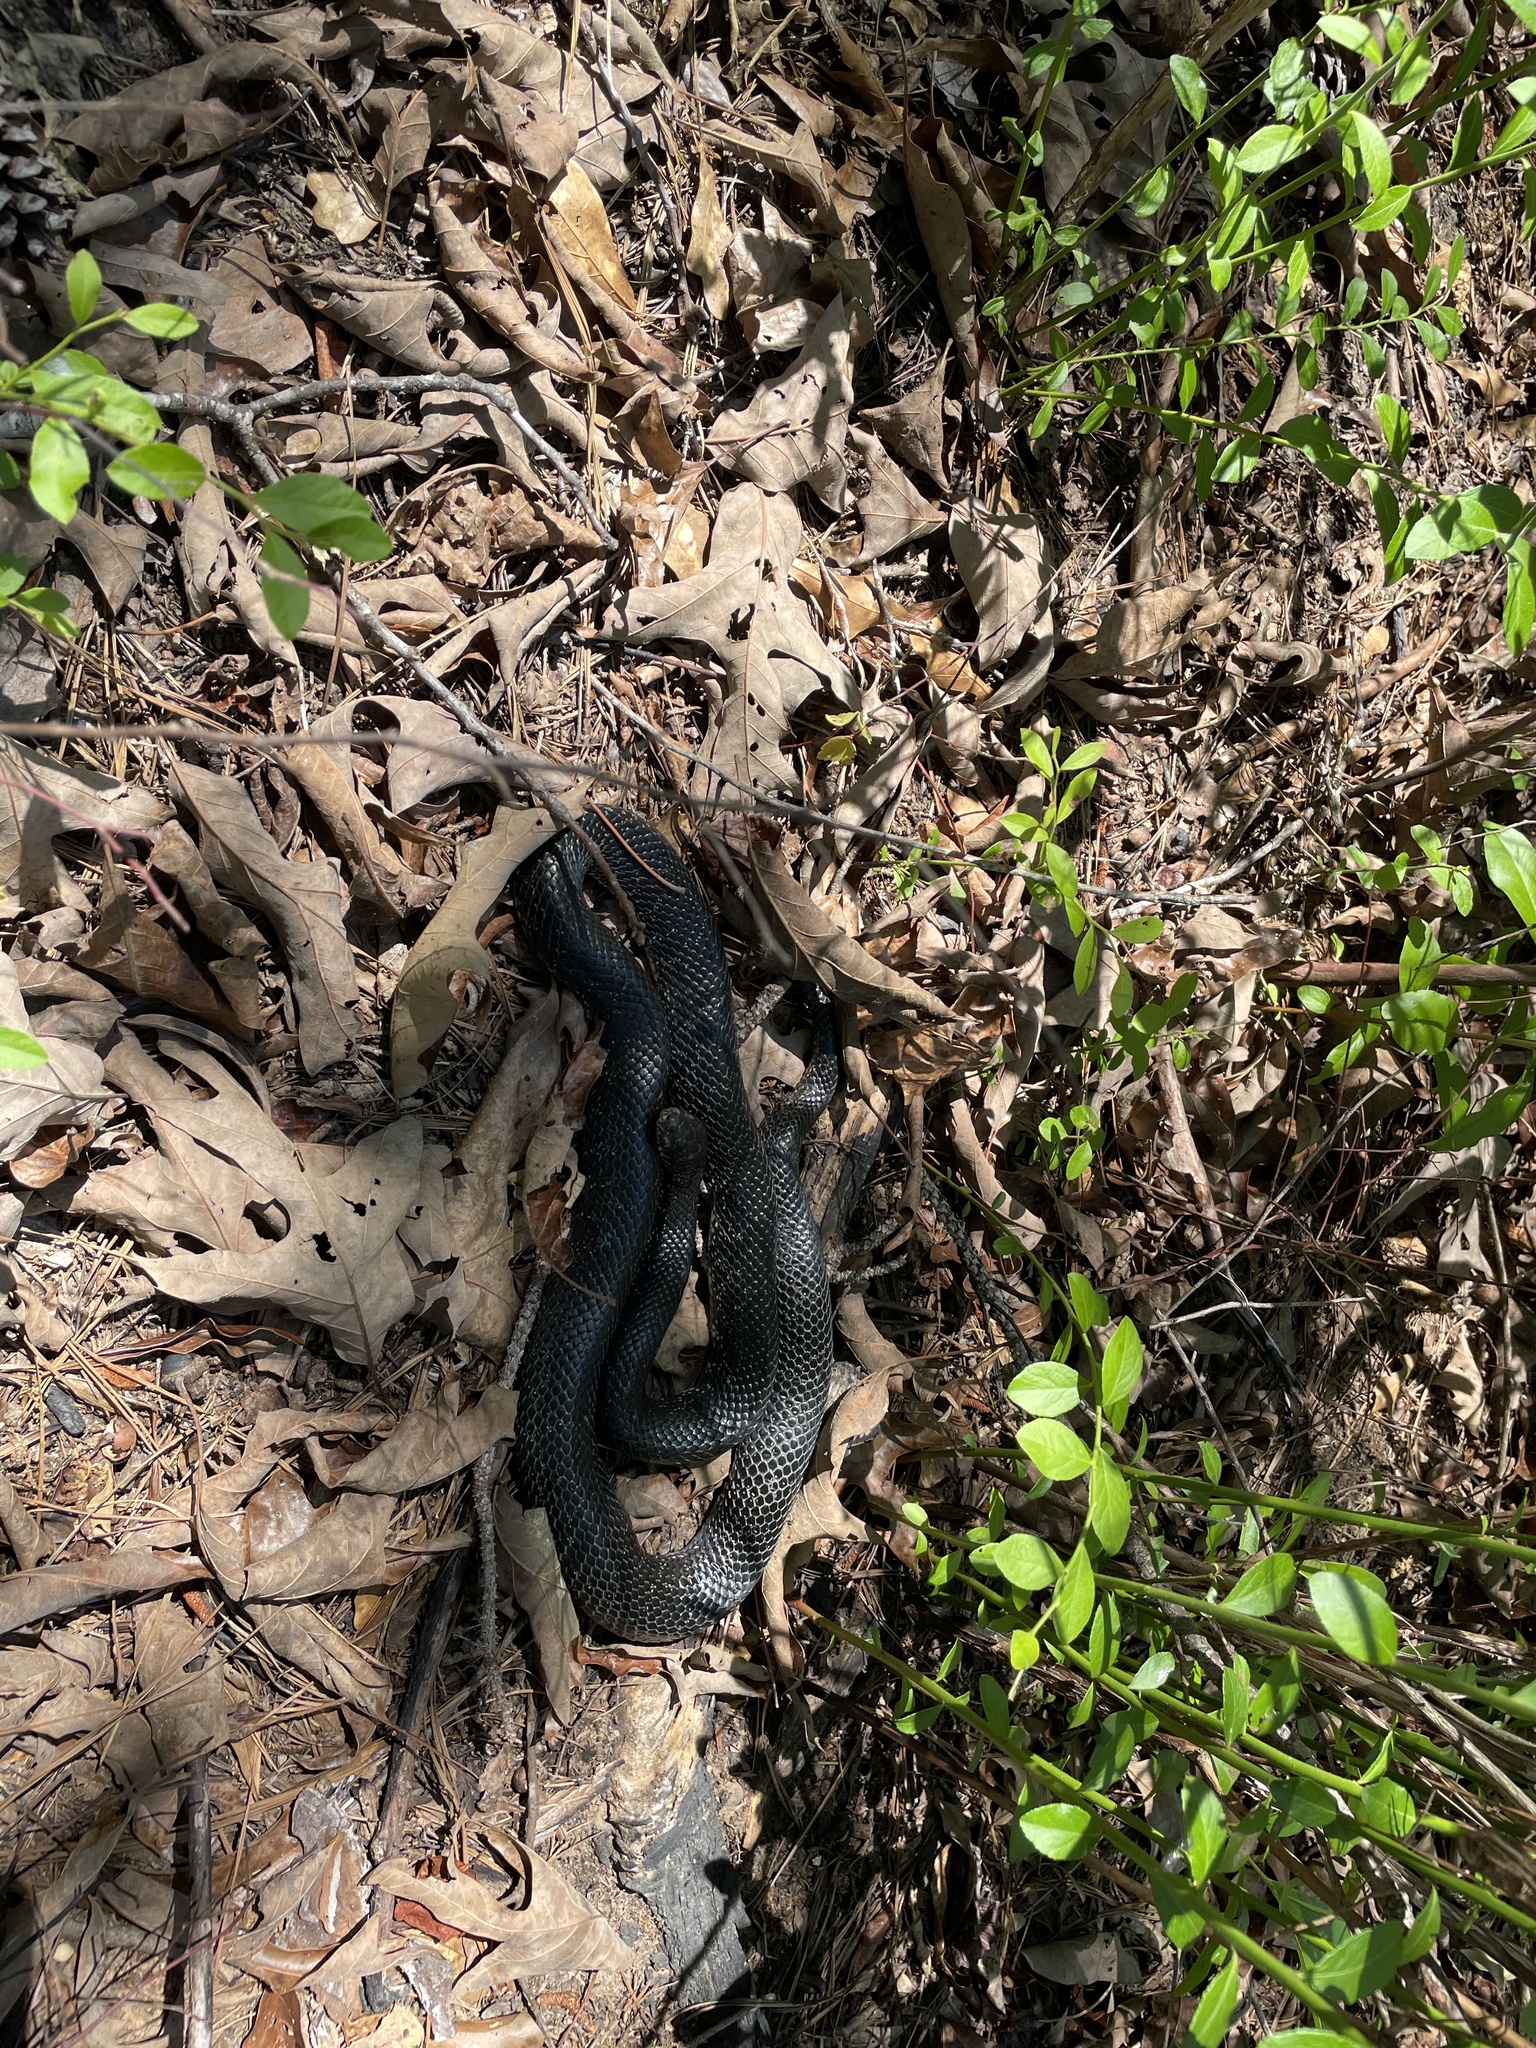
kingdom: Animalia
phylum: Chordata
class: Squamata
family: Colubridae
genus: Coluber
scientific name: Coluber constrictor
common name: Eastern racer
